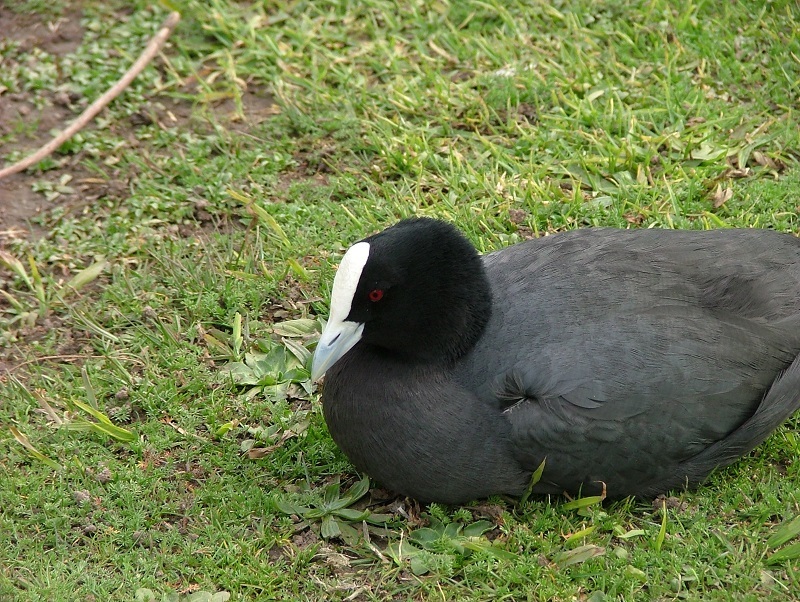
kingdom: Animalia
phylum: Chordata
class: Aves
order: Gruiformes
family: Rallidae
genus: Fulica
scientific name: Fulica atra
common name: Eurasian coot
